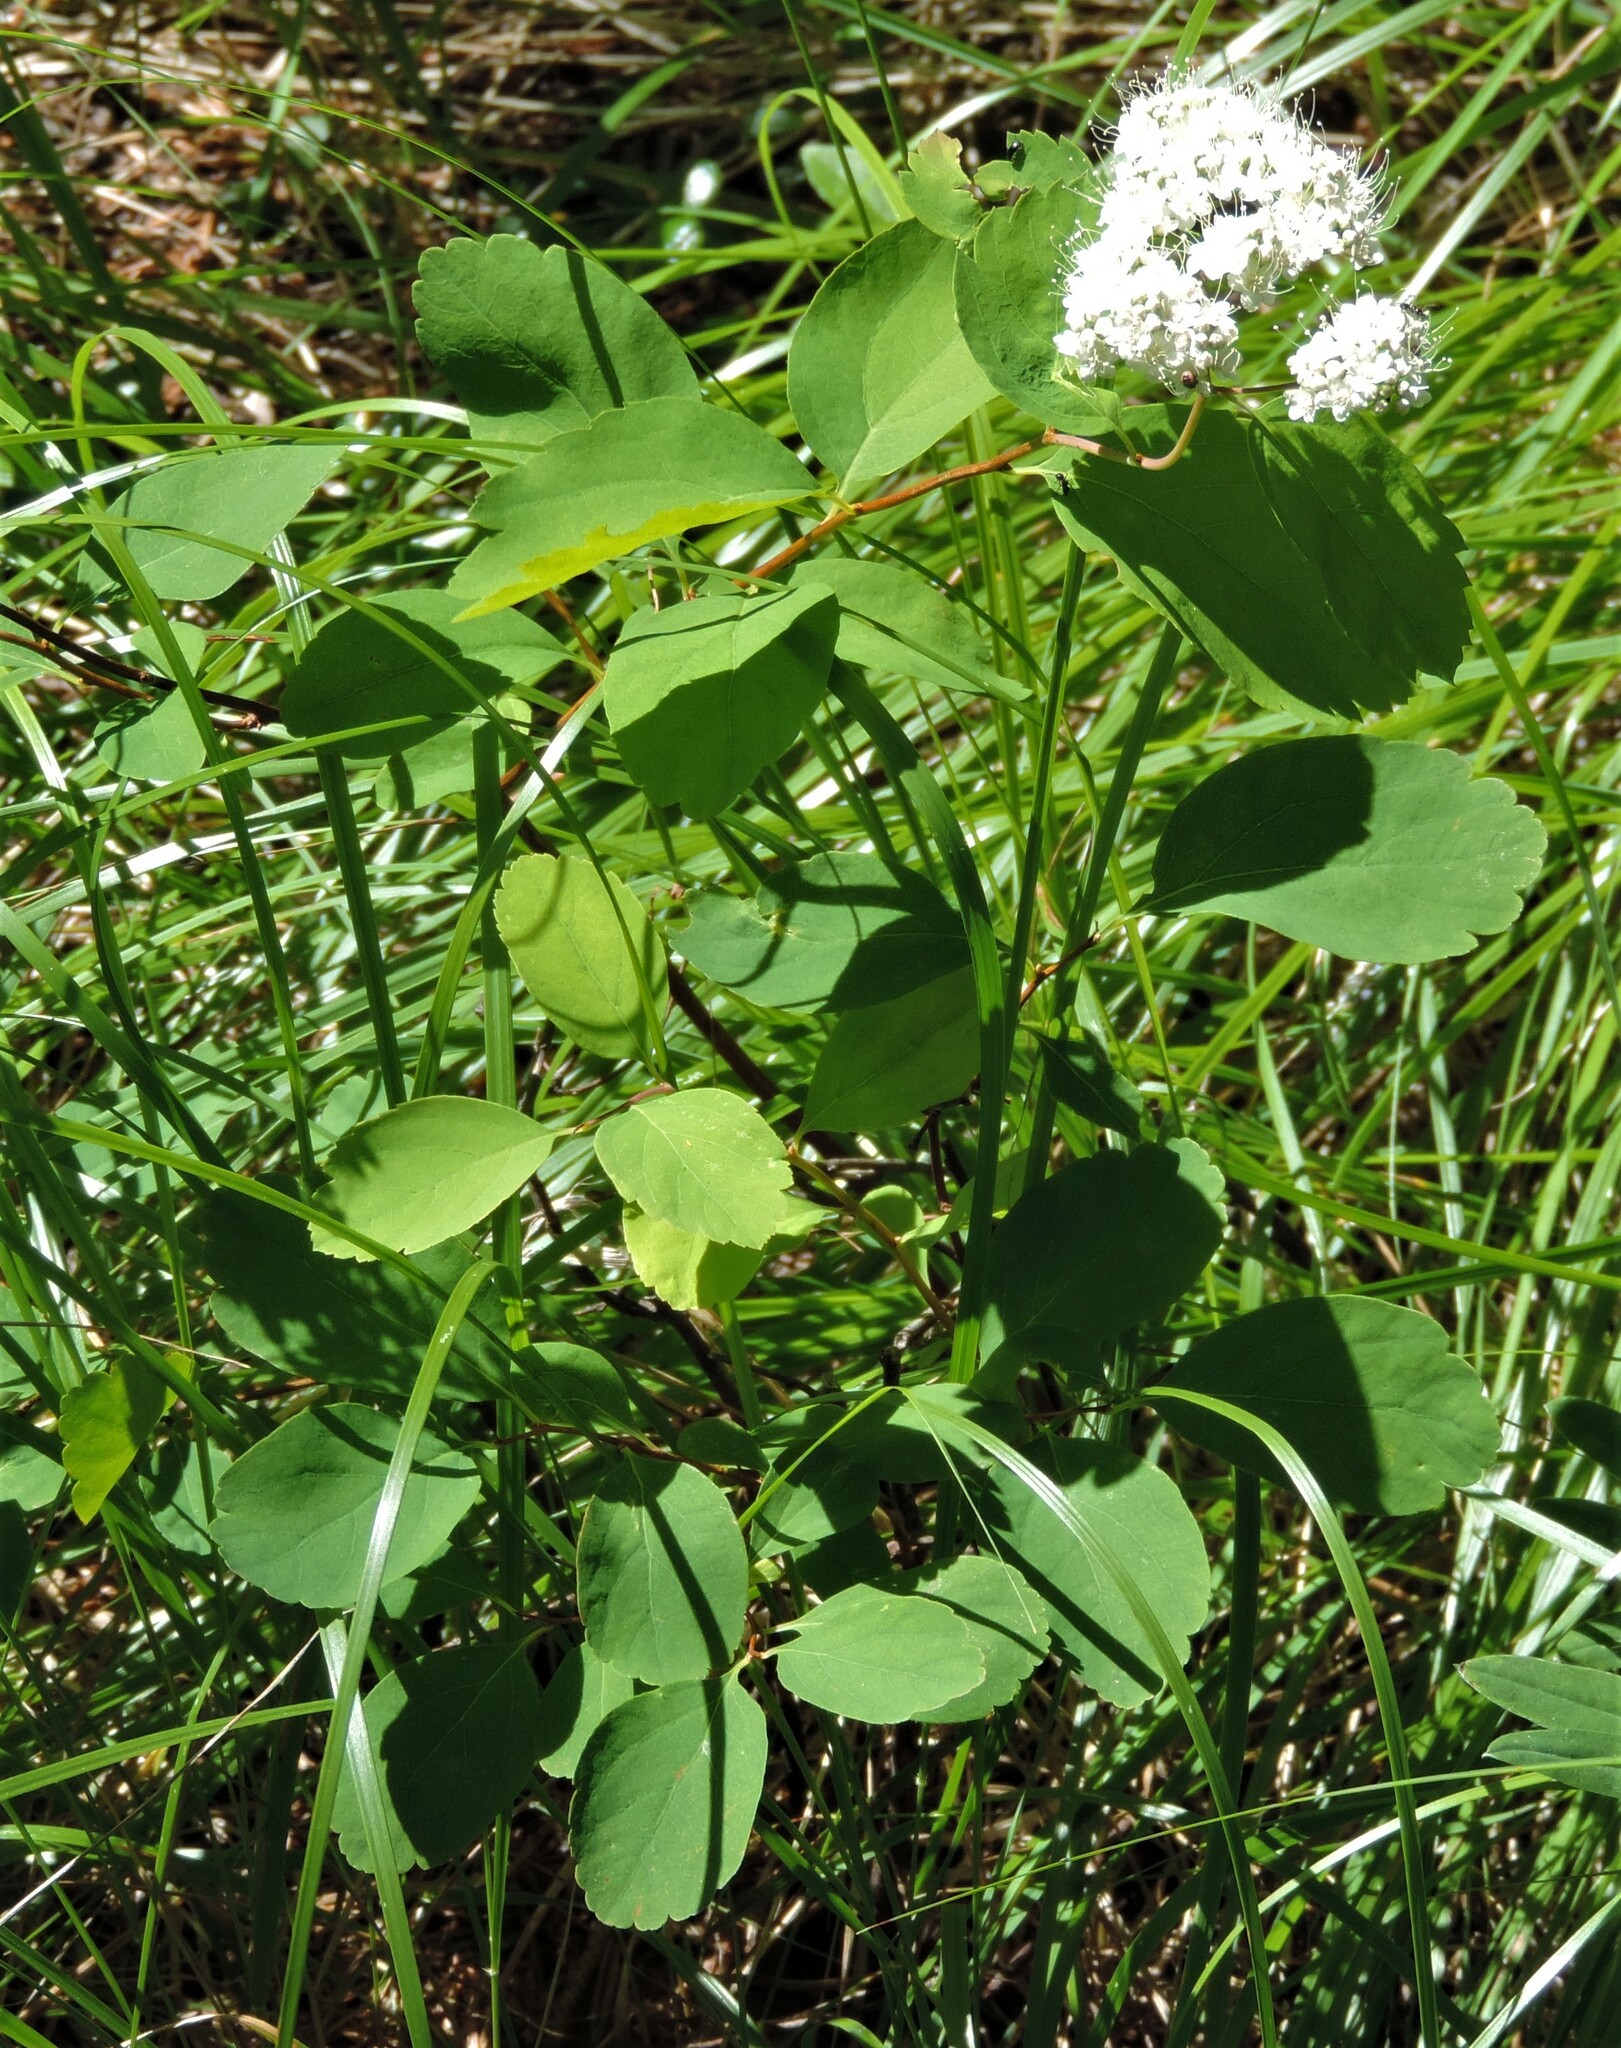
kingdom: Plantae
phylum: Tracheophyta
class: Magnoliopsida
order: Rosales
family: Rosaceae
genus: Spiraea
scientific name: Spiraea lucida
